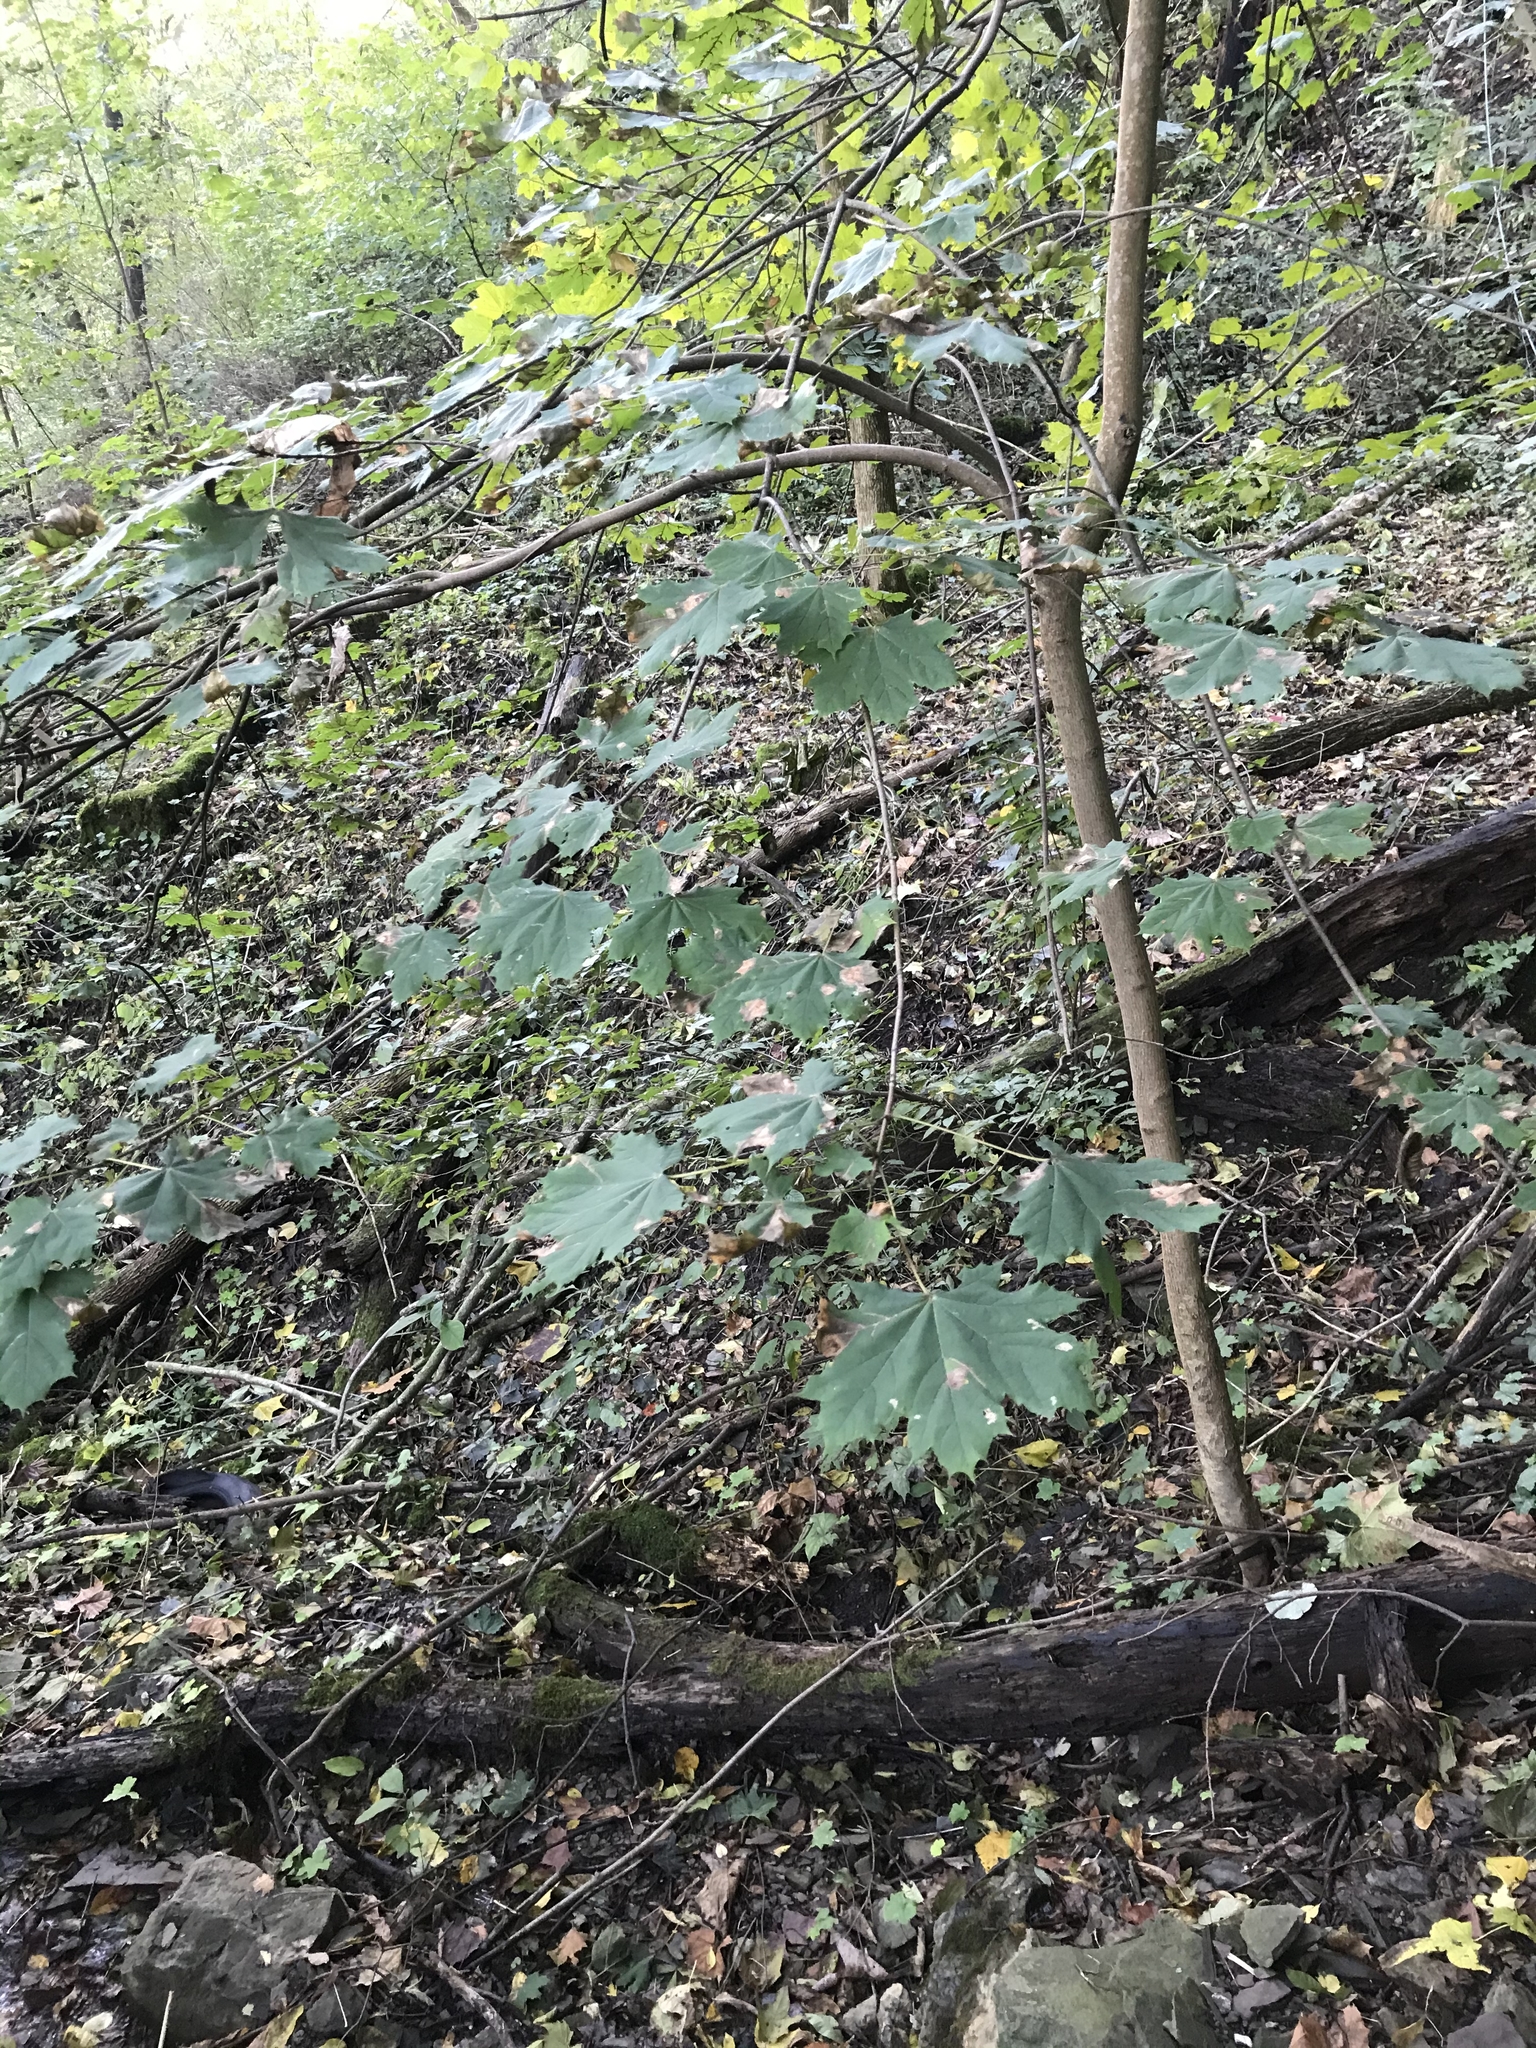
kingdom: Plantae
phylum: Tracheophyta
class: Magnoliopsida
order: Sapindales
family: Sapindaceae
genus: Acer
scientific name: Acer platanoides
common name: Norway maple
